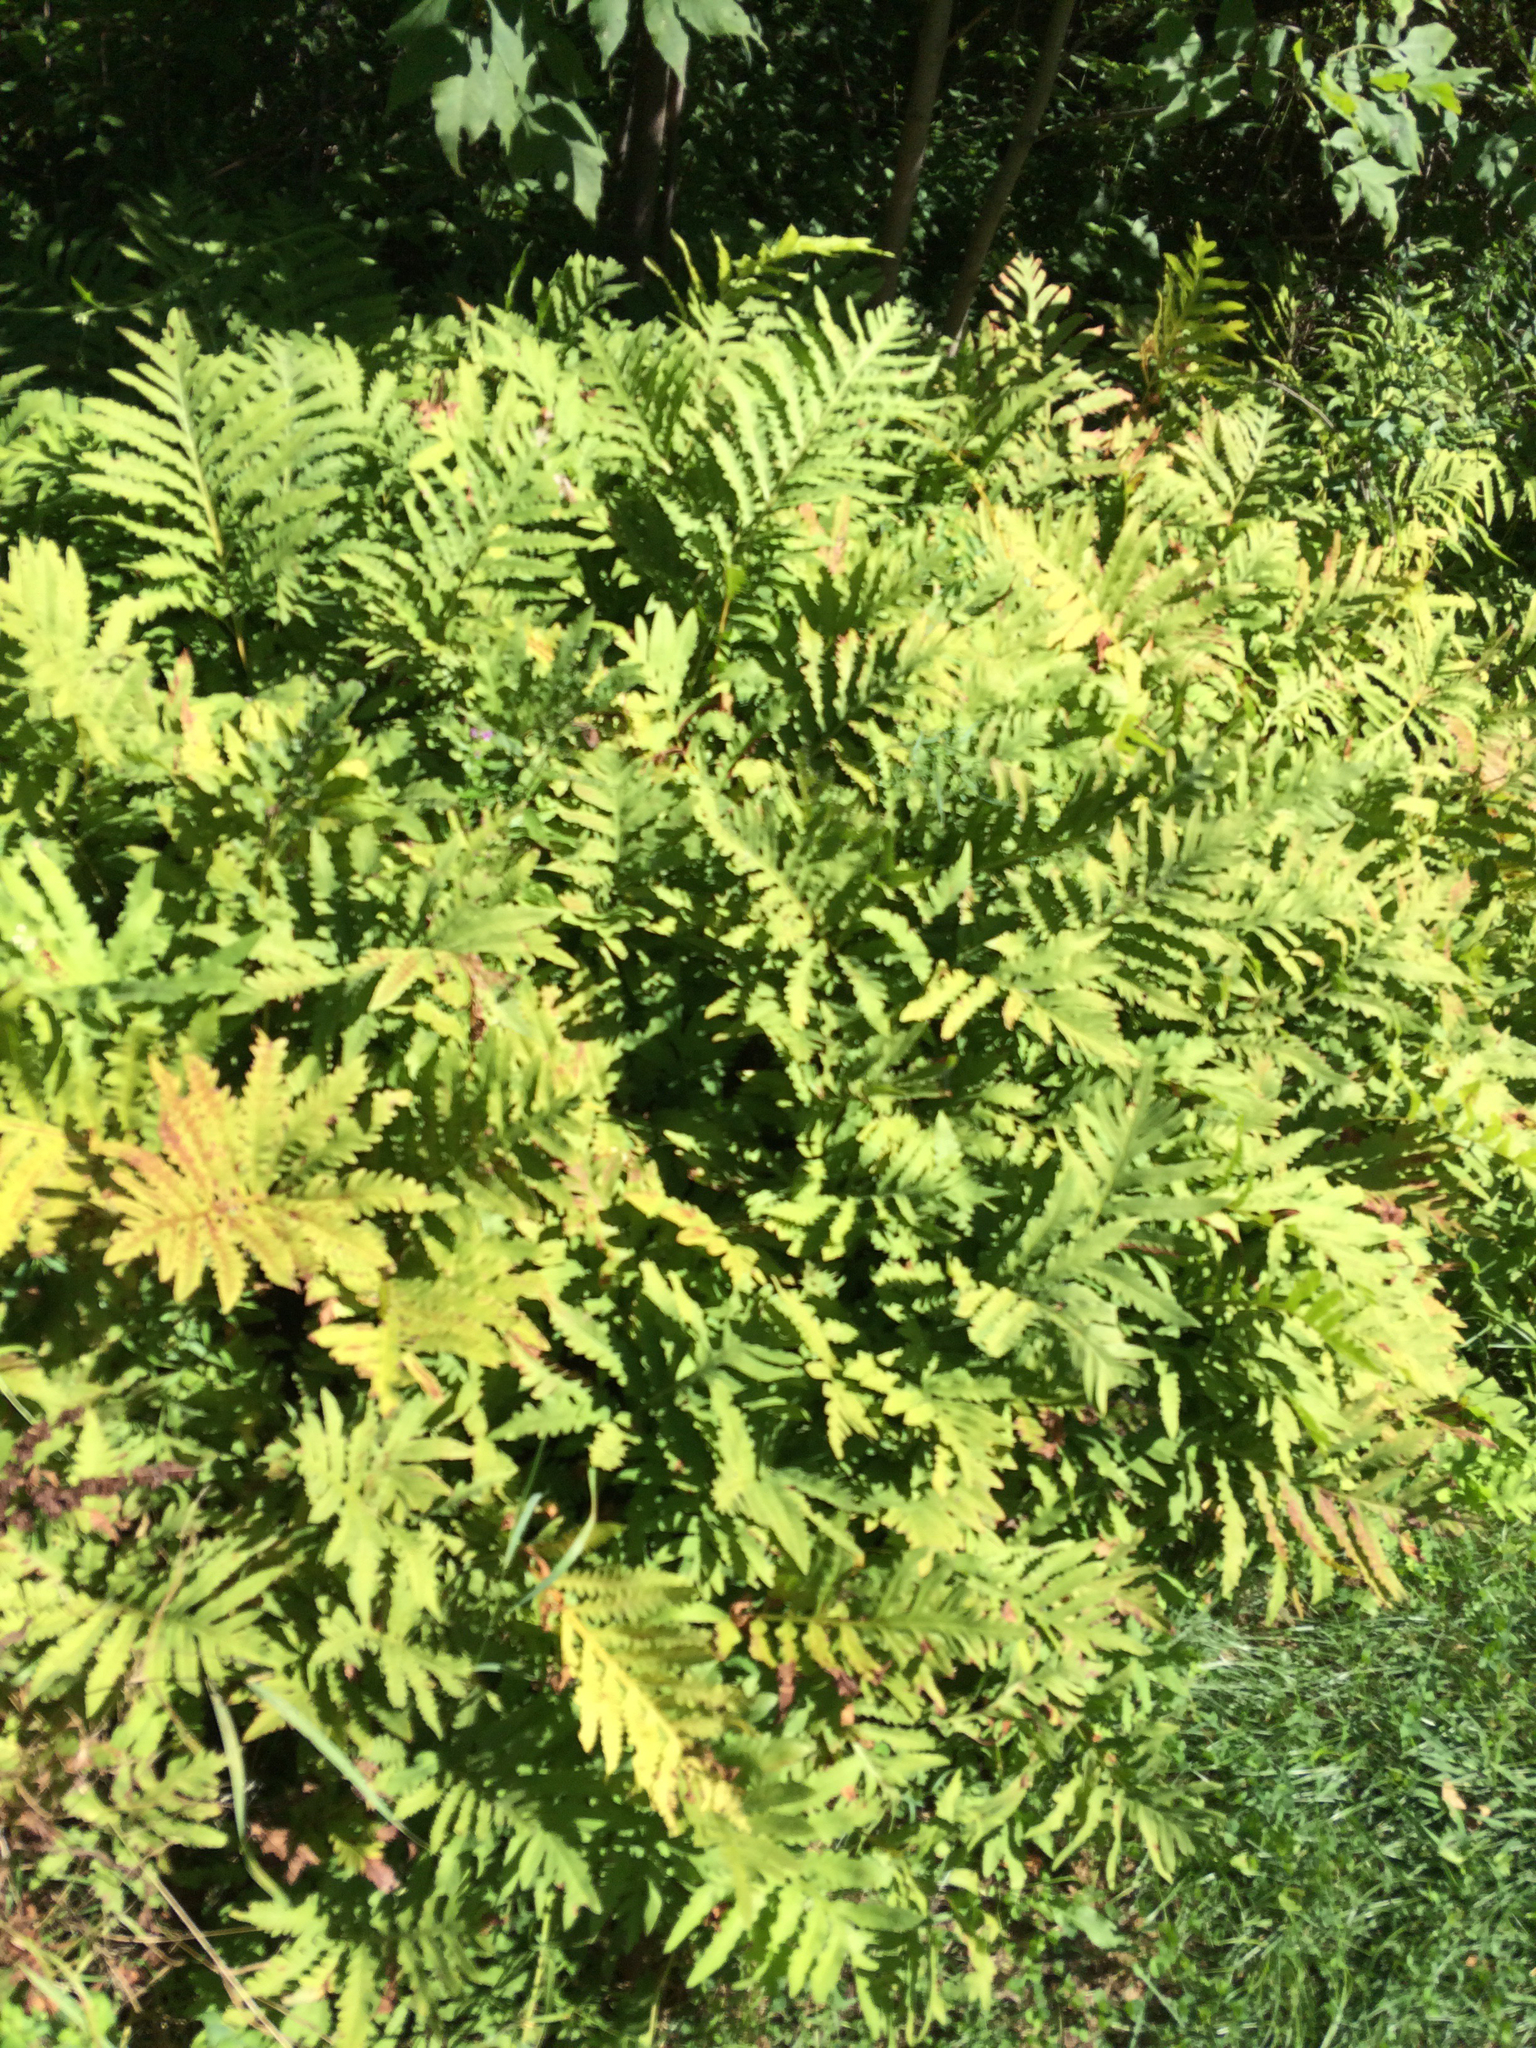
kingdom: Plantae
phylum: Tracheophyta
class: Polypodiopsida
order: Polypodiales
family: Onocleaceae
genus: Onoclea
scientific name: Onoclea sensibilis
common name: Sensitive fern
